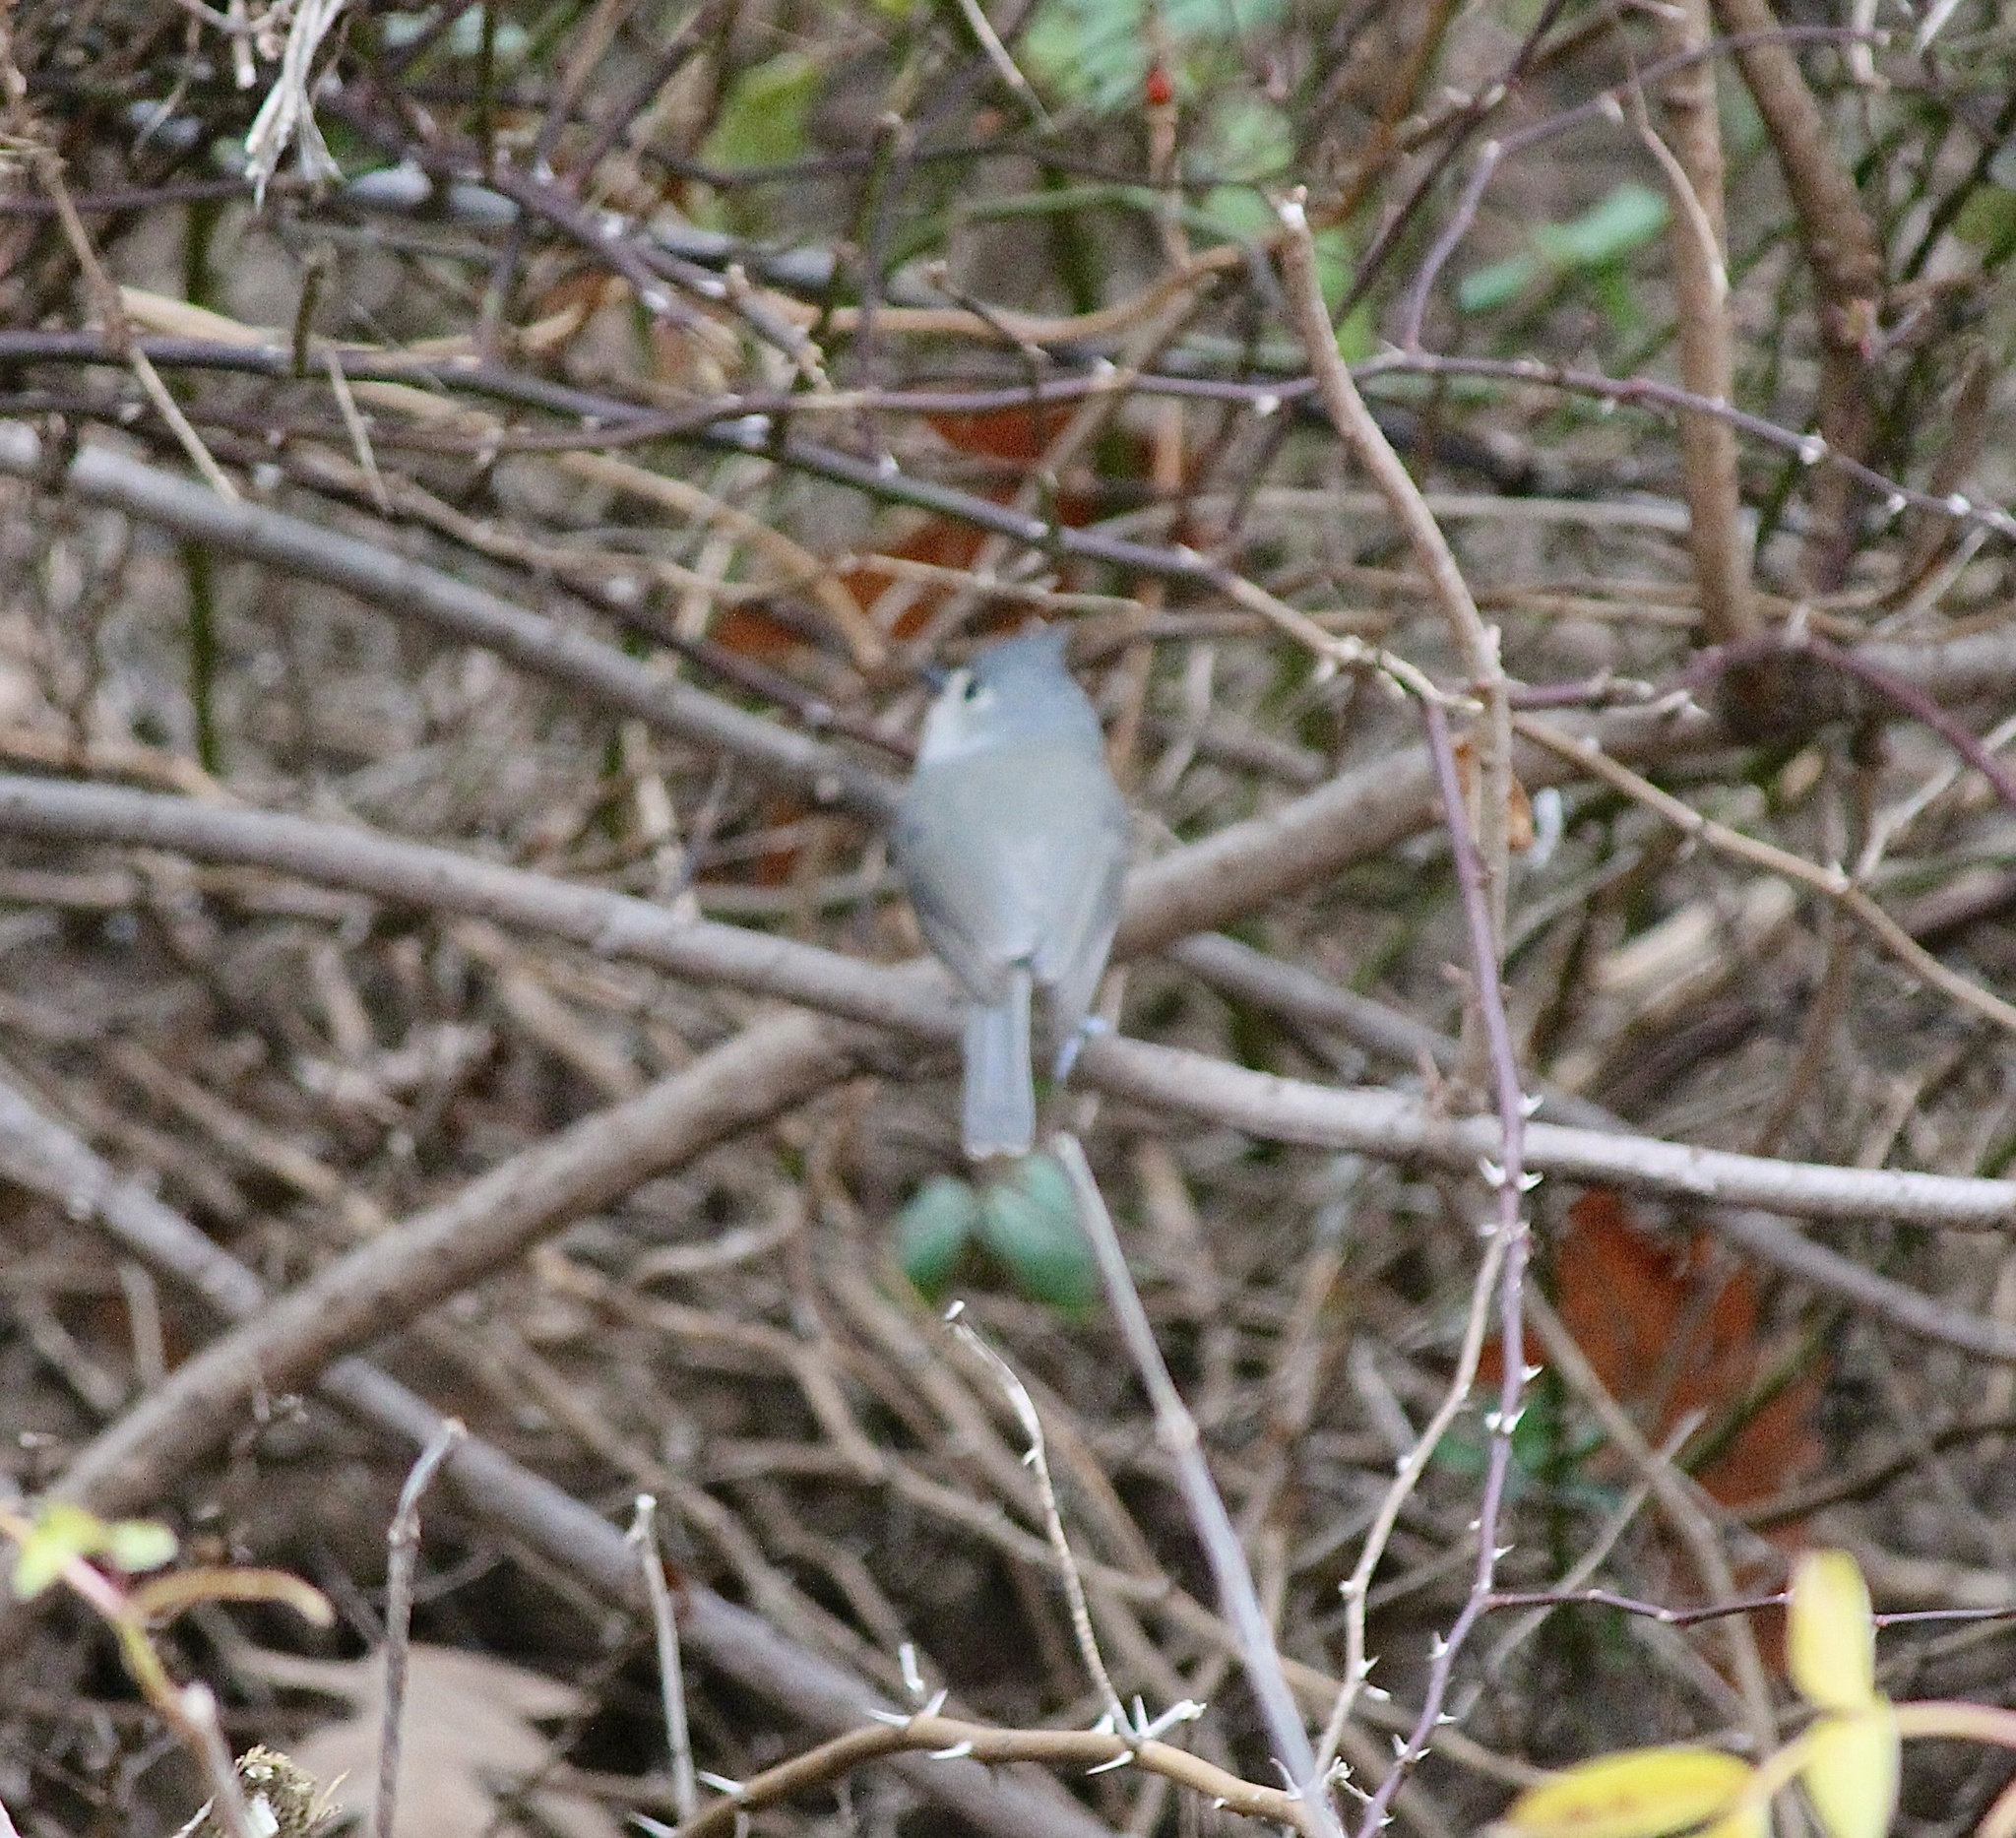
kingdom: Animalia
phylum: Chordata
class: Aves
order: Passeriformes
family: Paridae
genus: Baeolophus
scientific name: Baeolophus bicolor
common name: Tufted titmouse
